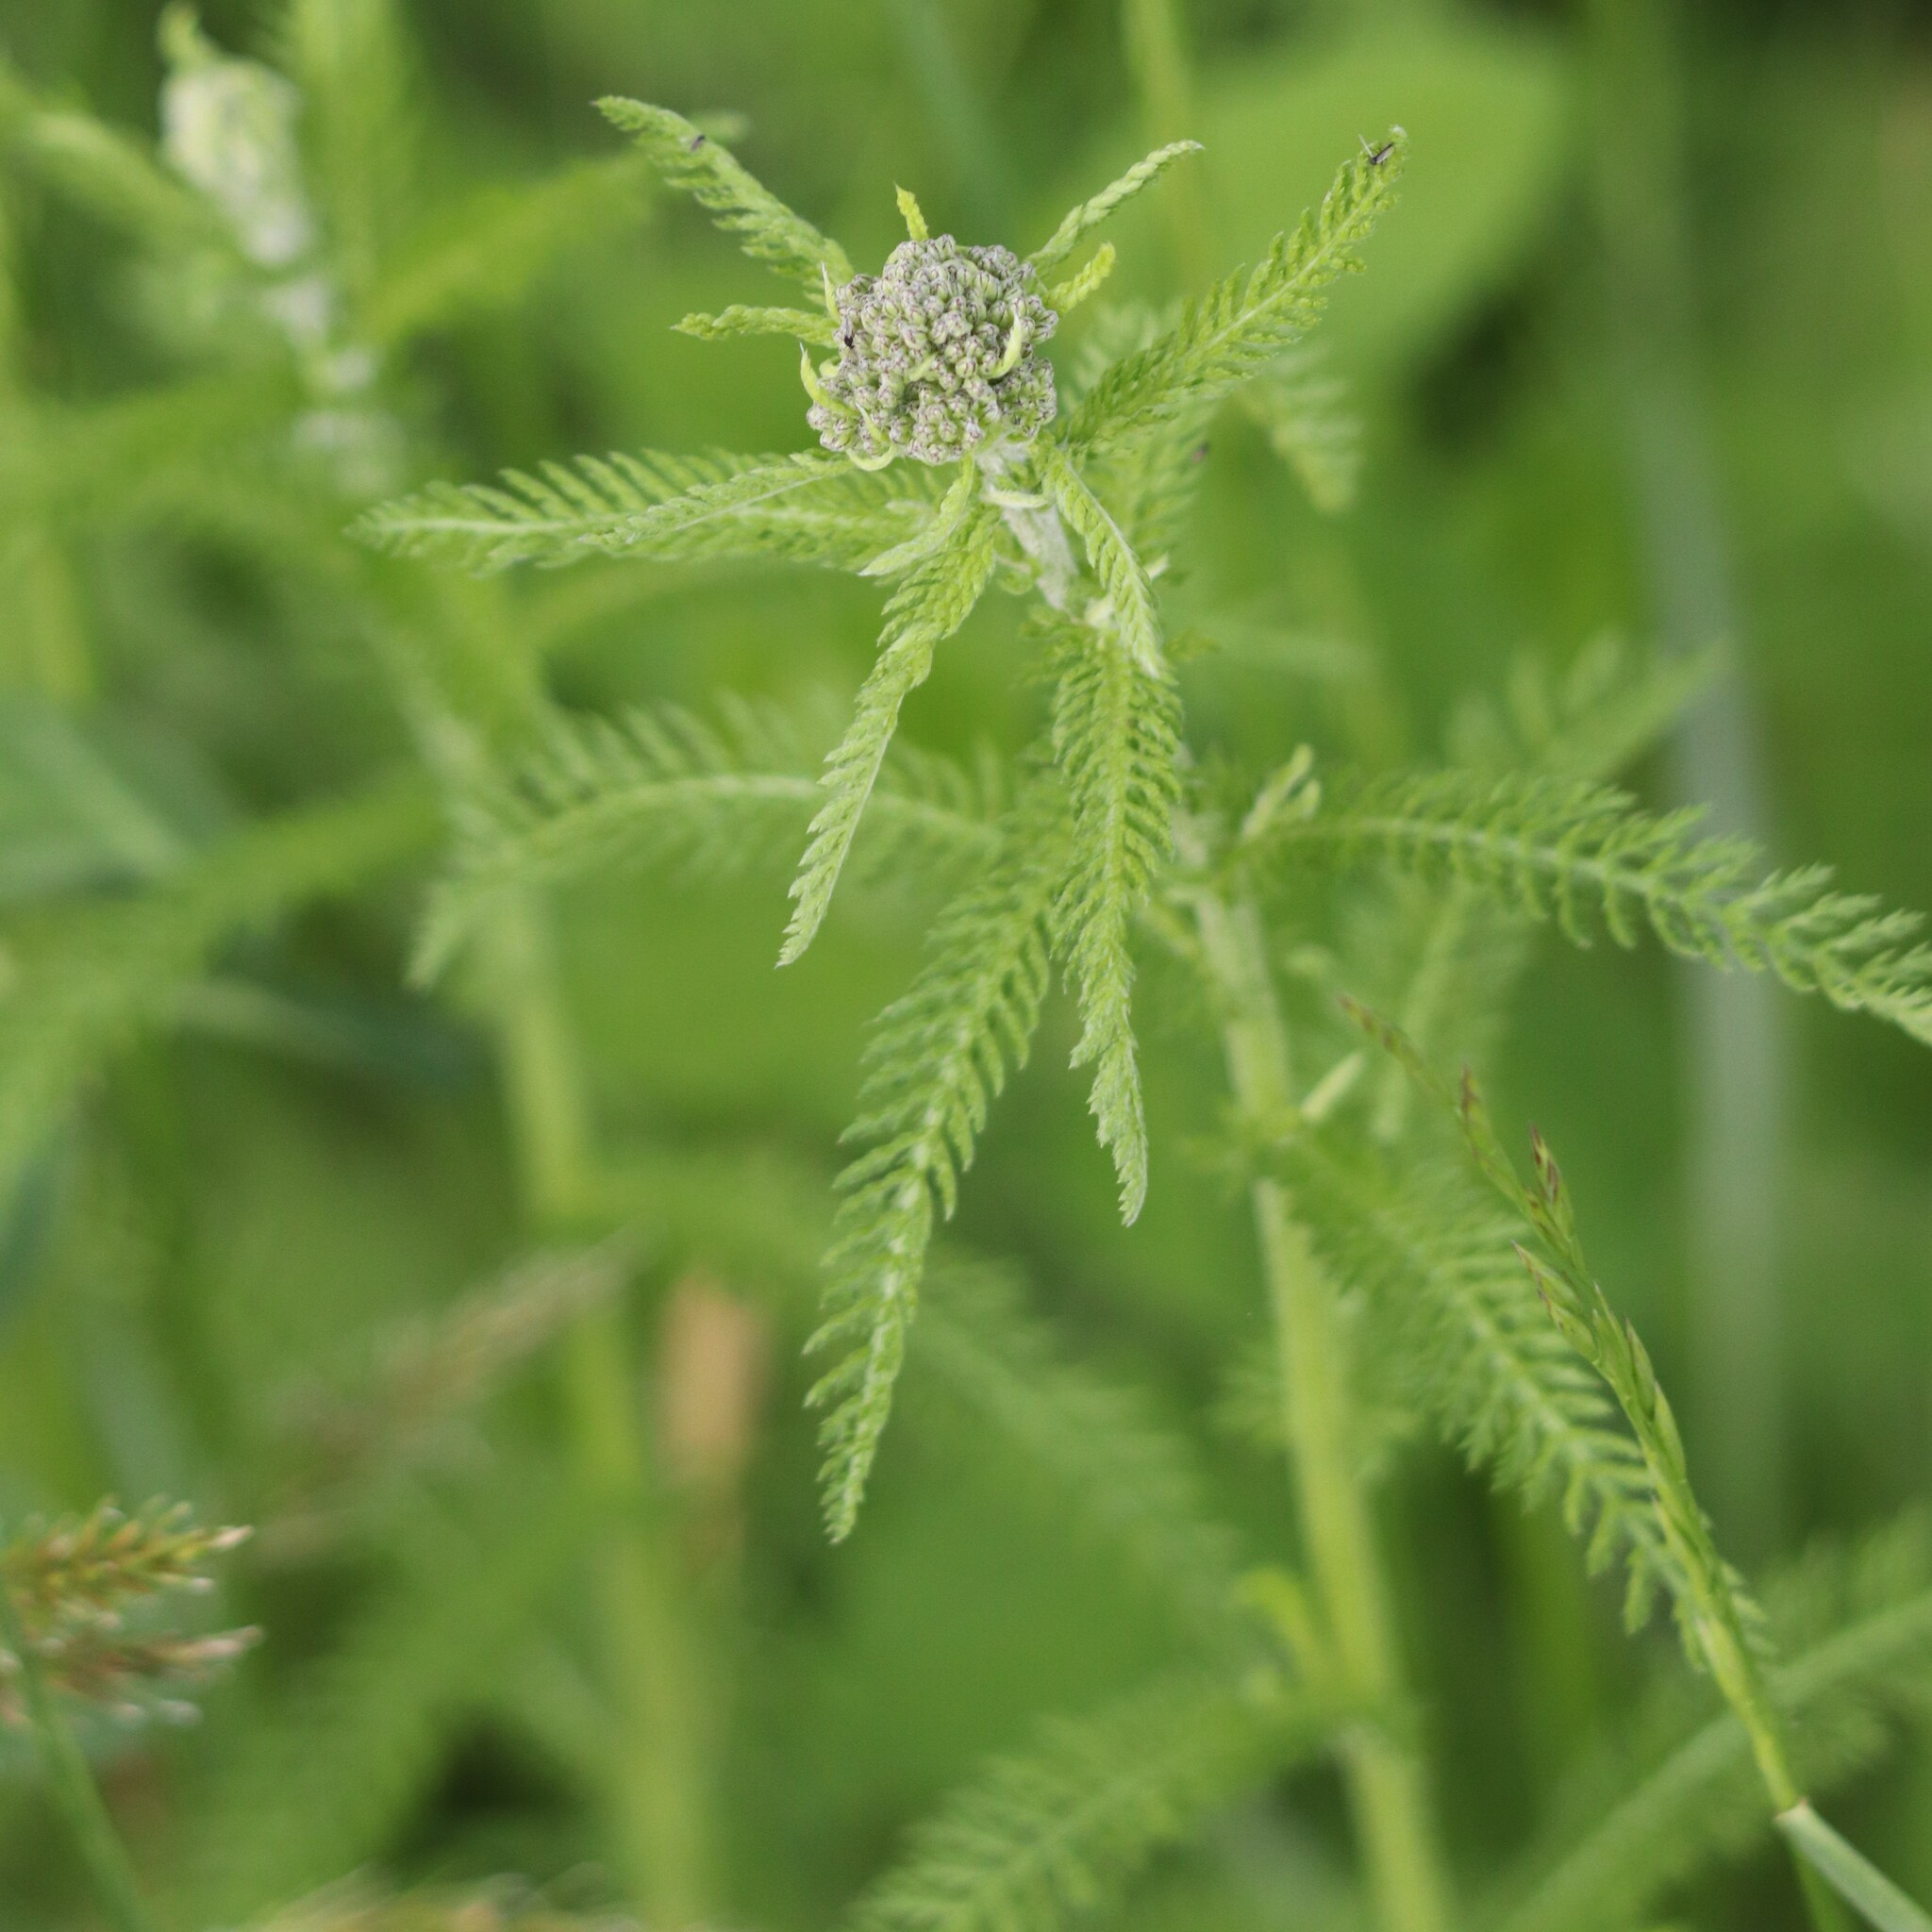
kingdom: Plantae
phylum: Tracheophyta
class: Magnoliopsida
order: Asterales
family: Asteraceae
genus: Achillea
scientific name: Achillea millefolium
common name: Yarrow
